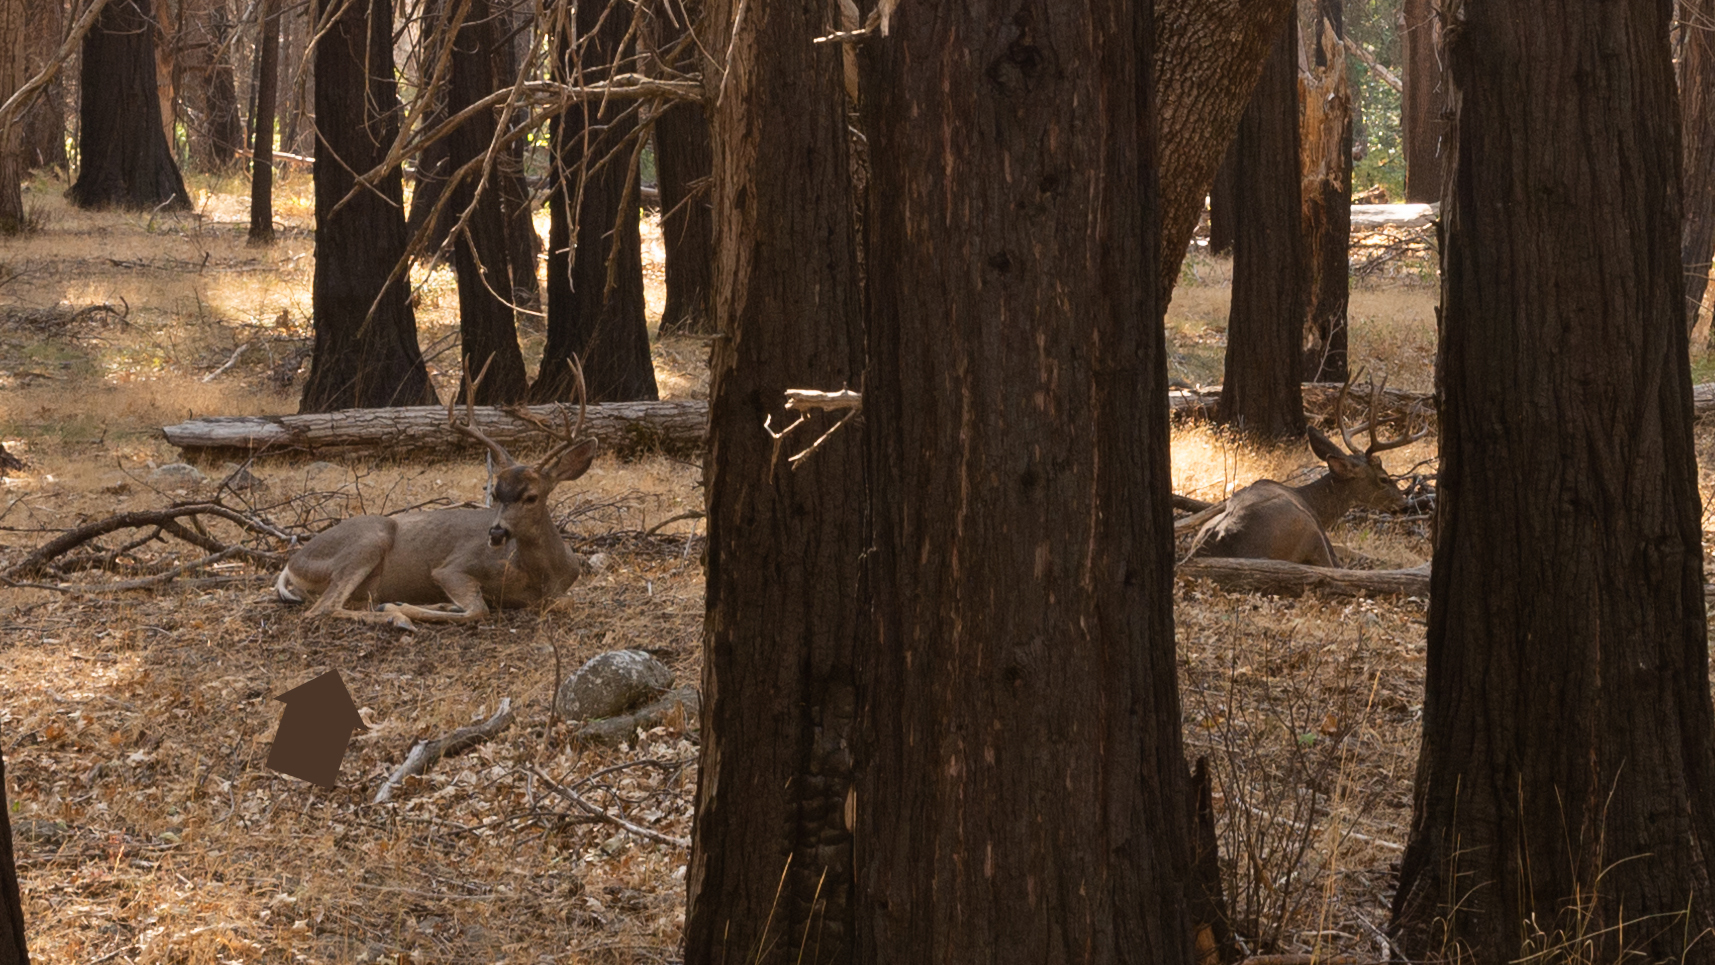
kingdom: Animalia
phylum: Chordata
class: Mammalia
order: Artiodactyla
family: Cervidae
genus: Odocoileus
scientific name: Odocoileus hemionus
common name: Mule deer
